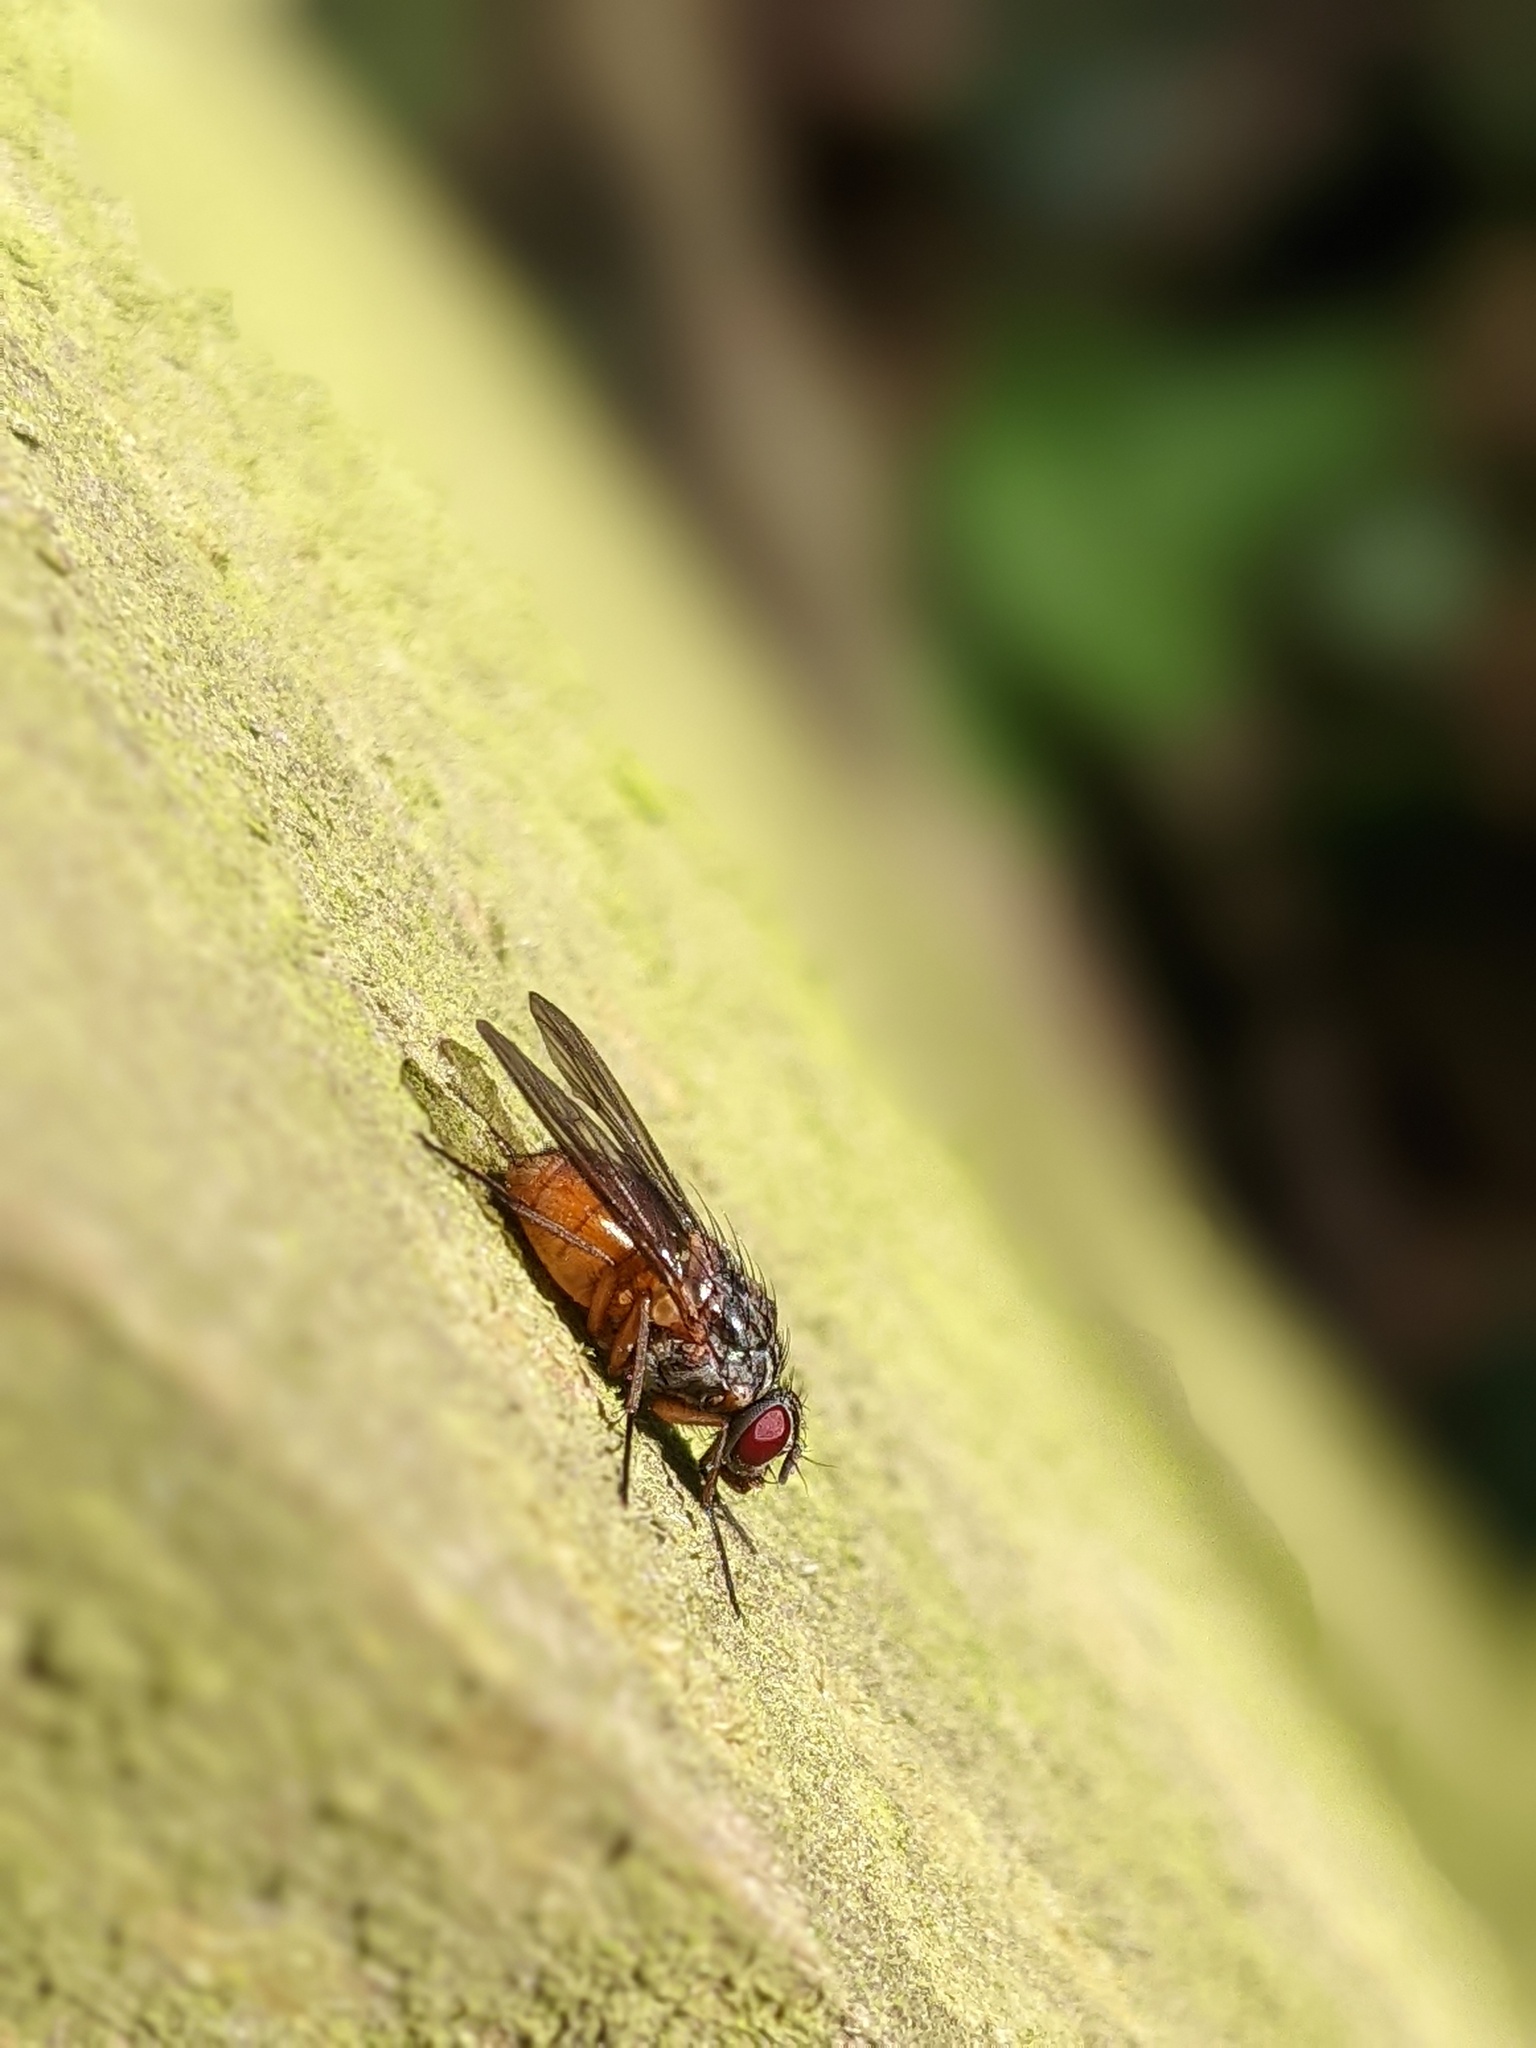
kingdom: Animalia
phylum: Arthropoda
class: Insecta
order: Diptera
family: Muscidae
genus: Phaonia
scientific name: Phaonia subventa
